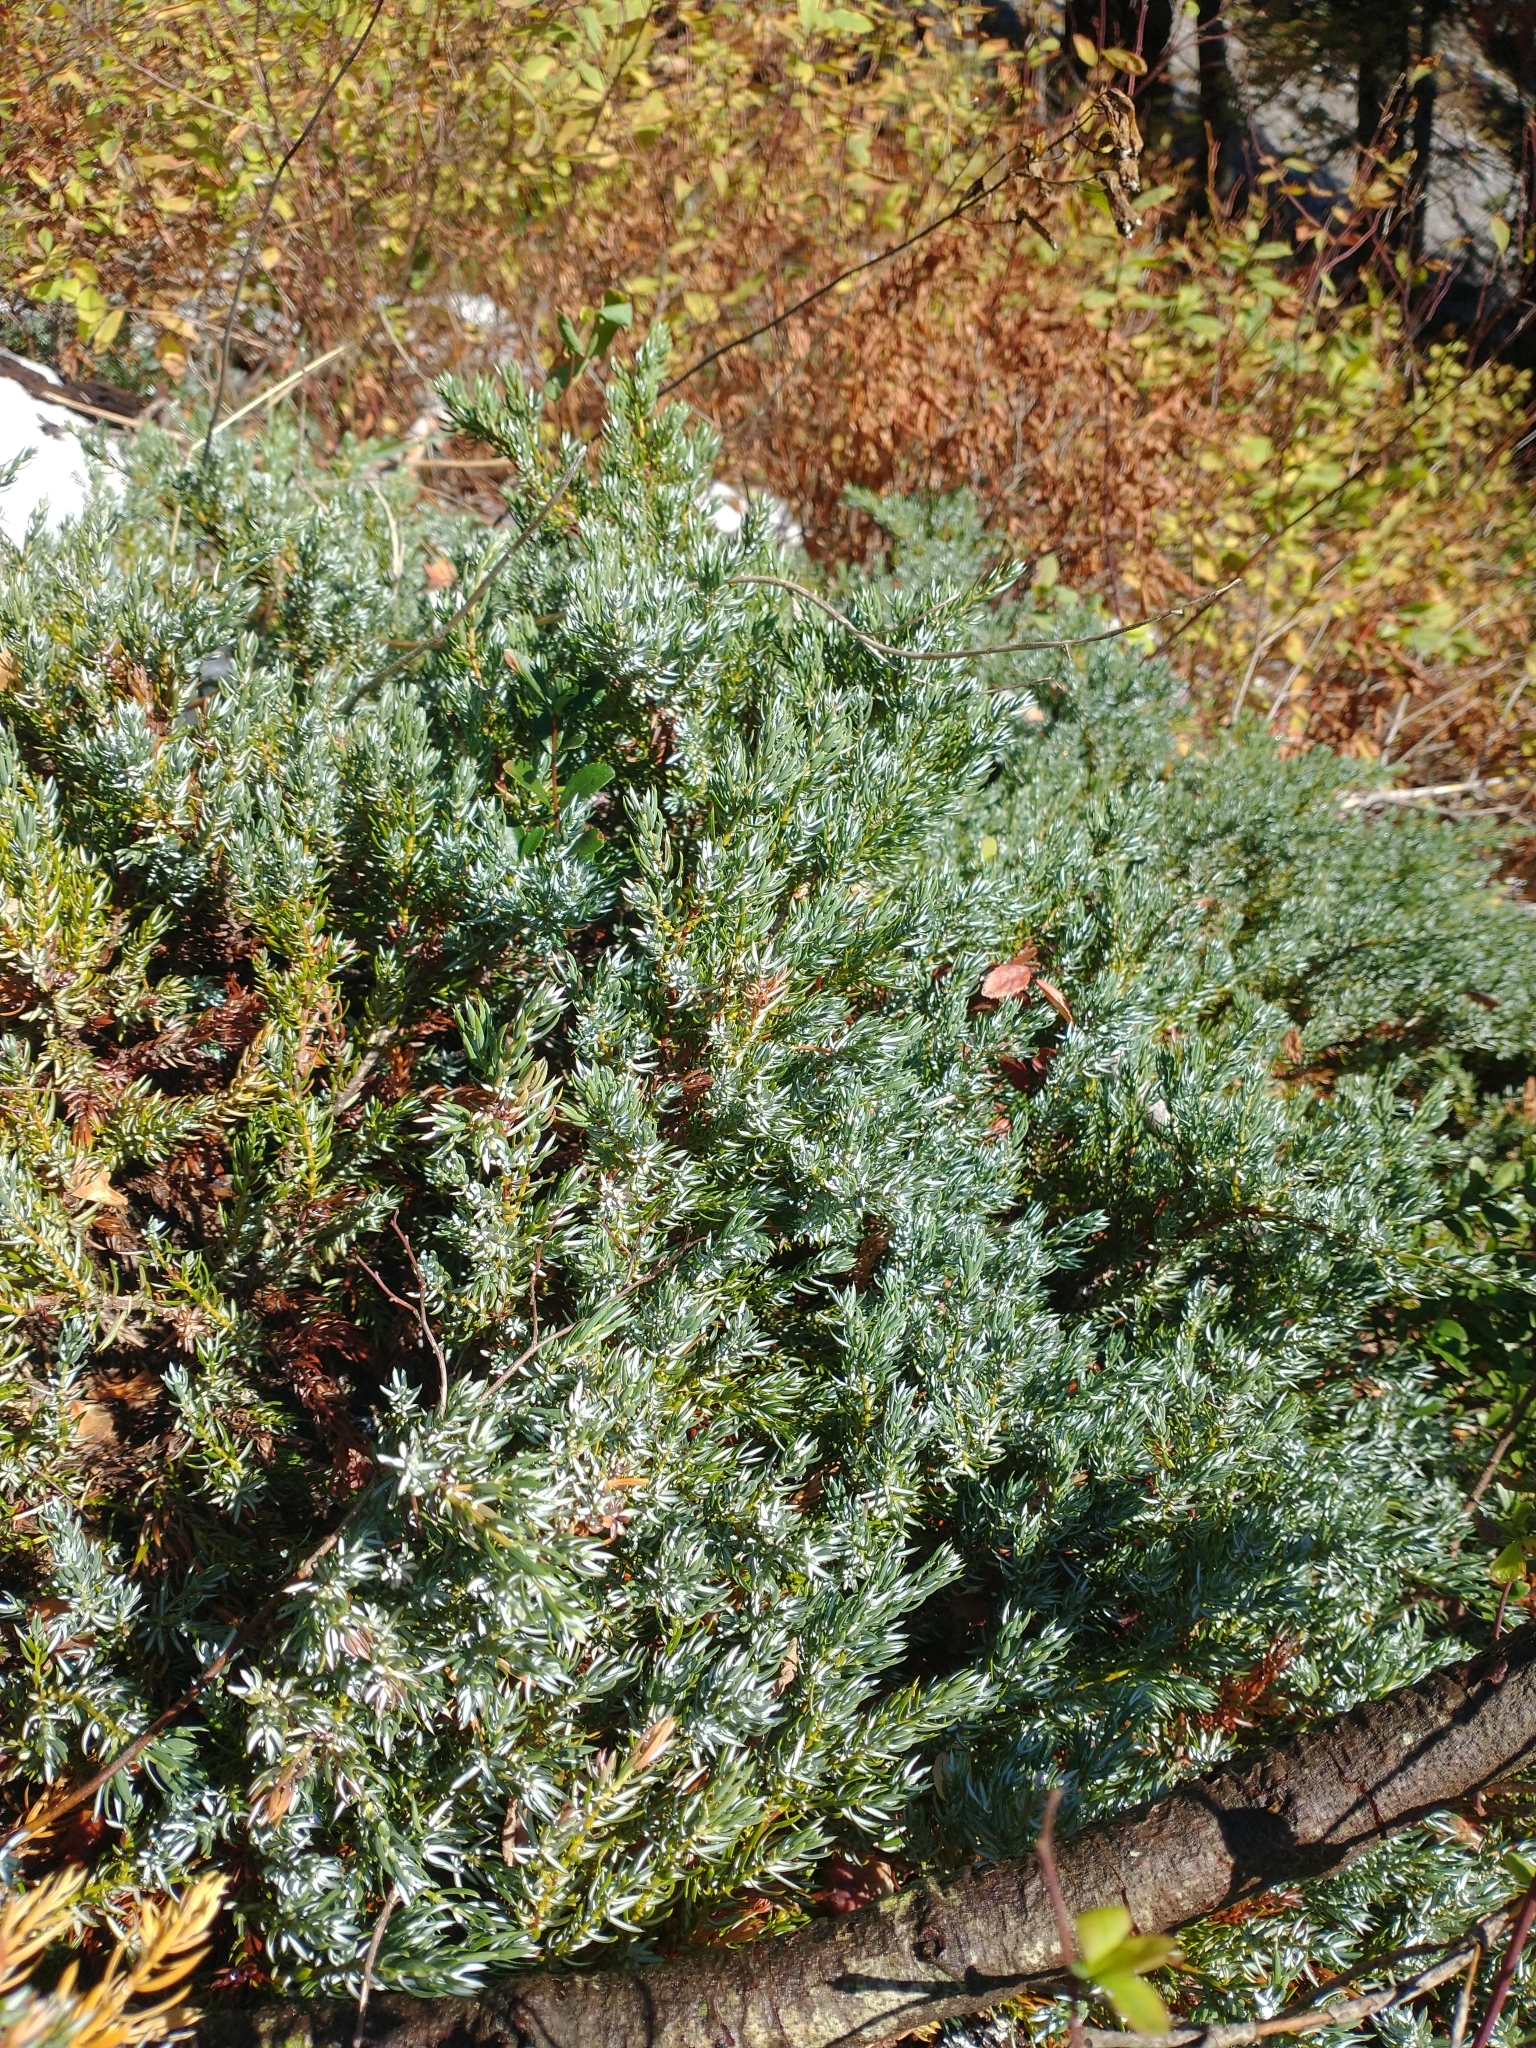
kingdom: Plantae
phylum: Tracheophyta
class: Pinopsida
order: Pinales
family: Cupressaceae
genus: Juniperus
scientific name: Juniperus communis
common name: Common juniper
